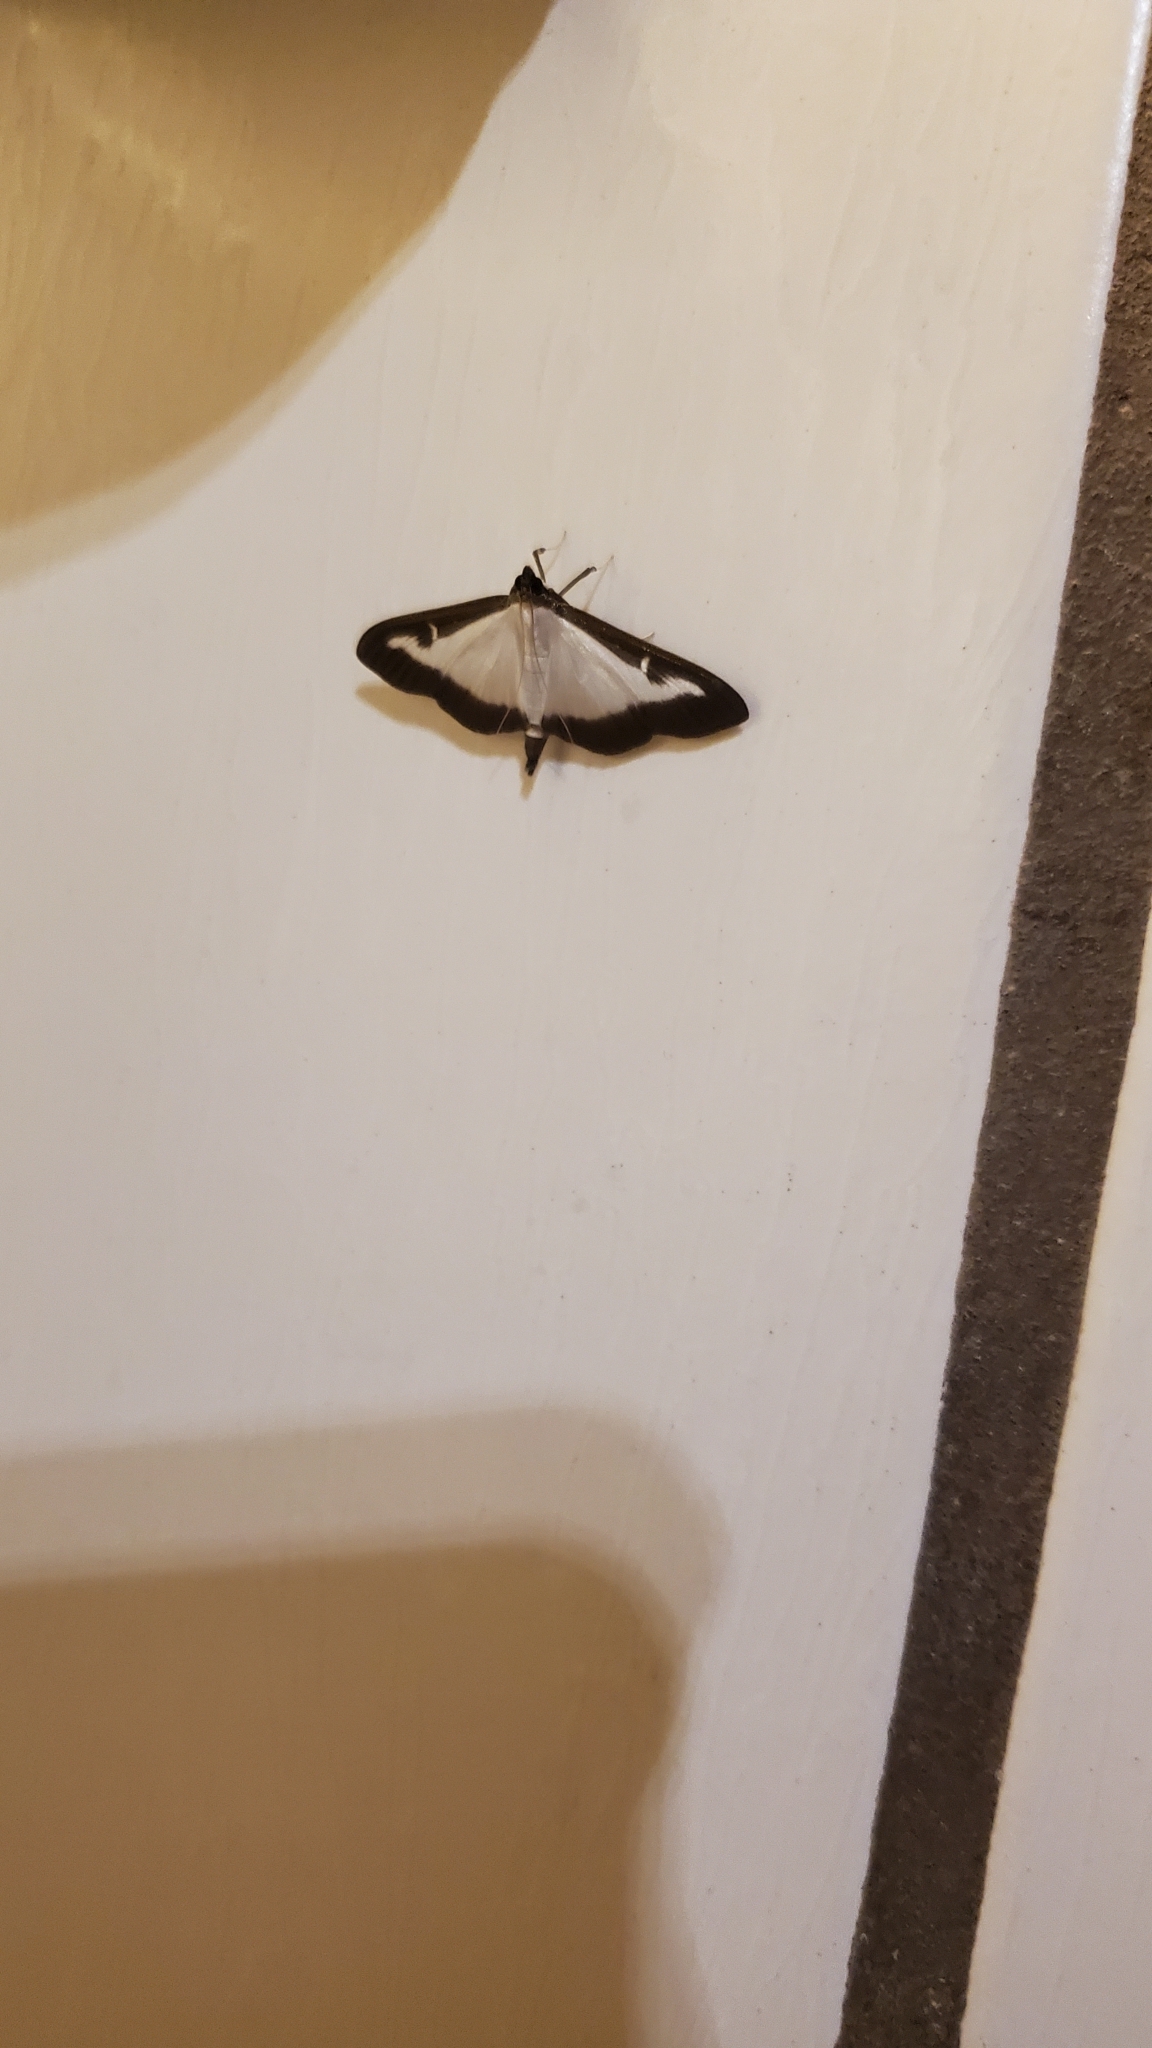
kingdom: Animalia
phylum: Arthropoda
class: Insecta
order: Lepidoptera
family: Crambidae
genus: Cydalima
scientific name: Cydalima perspectalis
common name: Box tree moth
